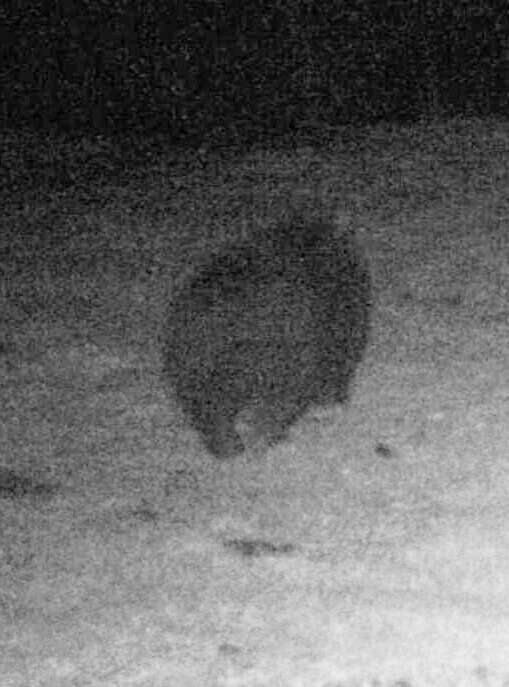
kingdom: Animalia
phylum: Chordata
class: Mammalia
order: Diprotodontia
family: Vombatidae
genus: Vombatus
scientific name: Vombatus ursinus
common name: Common wombat
